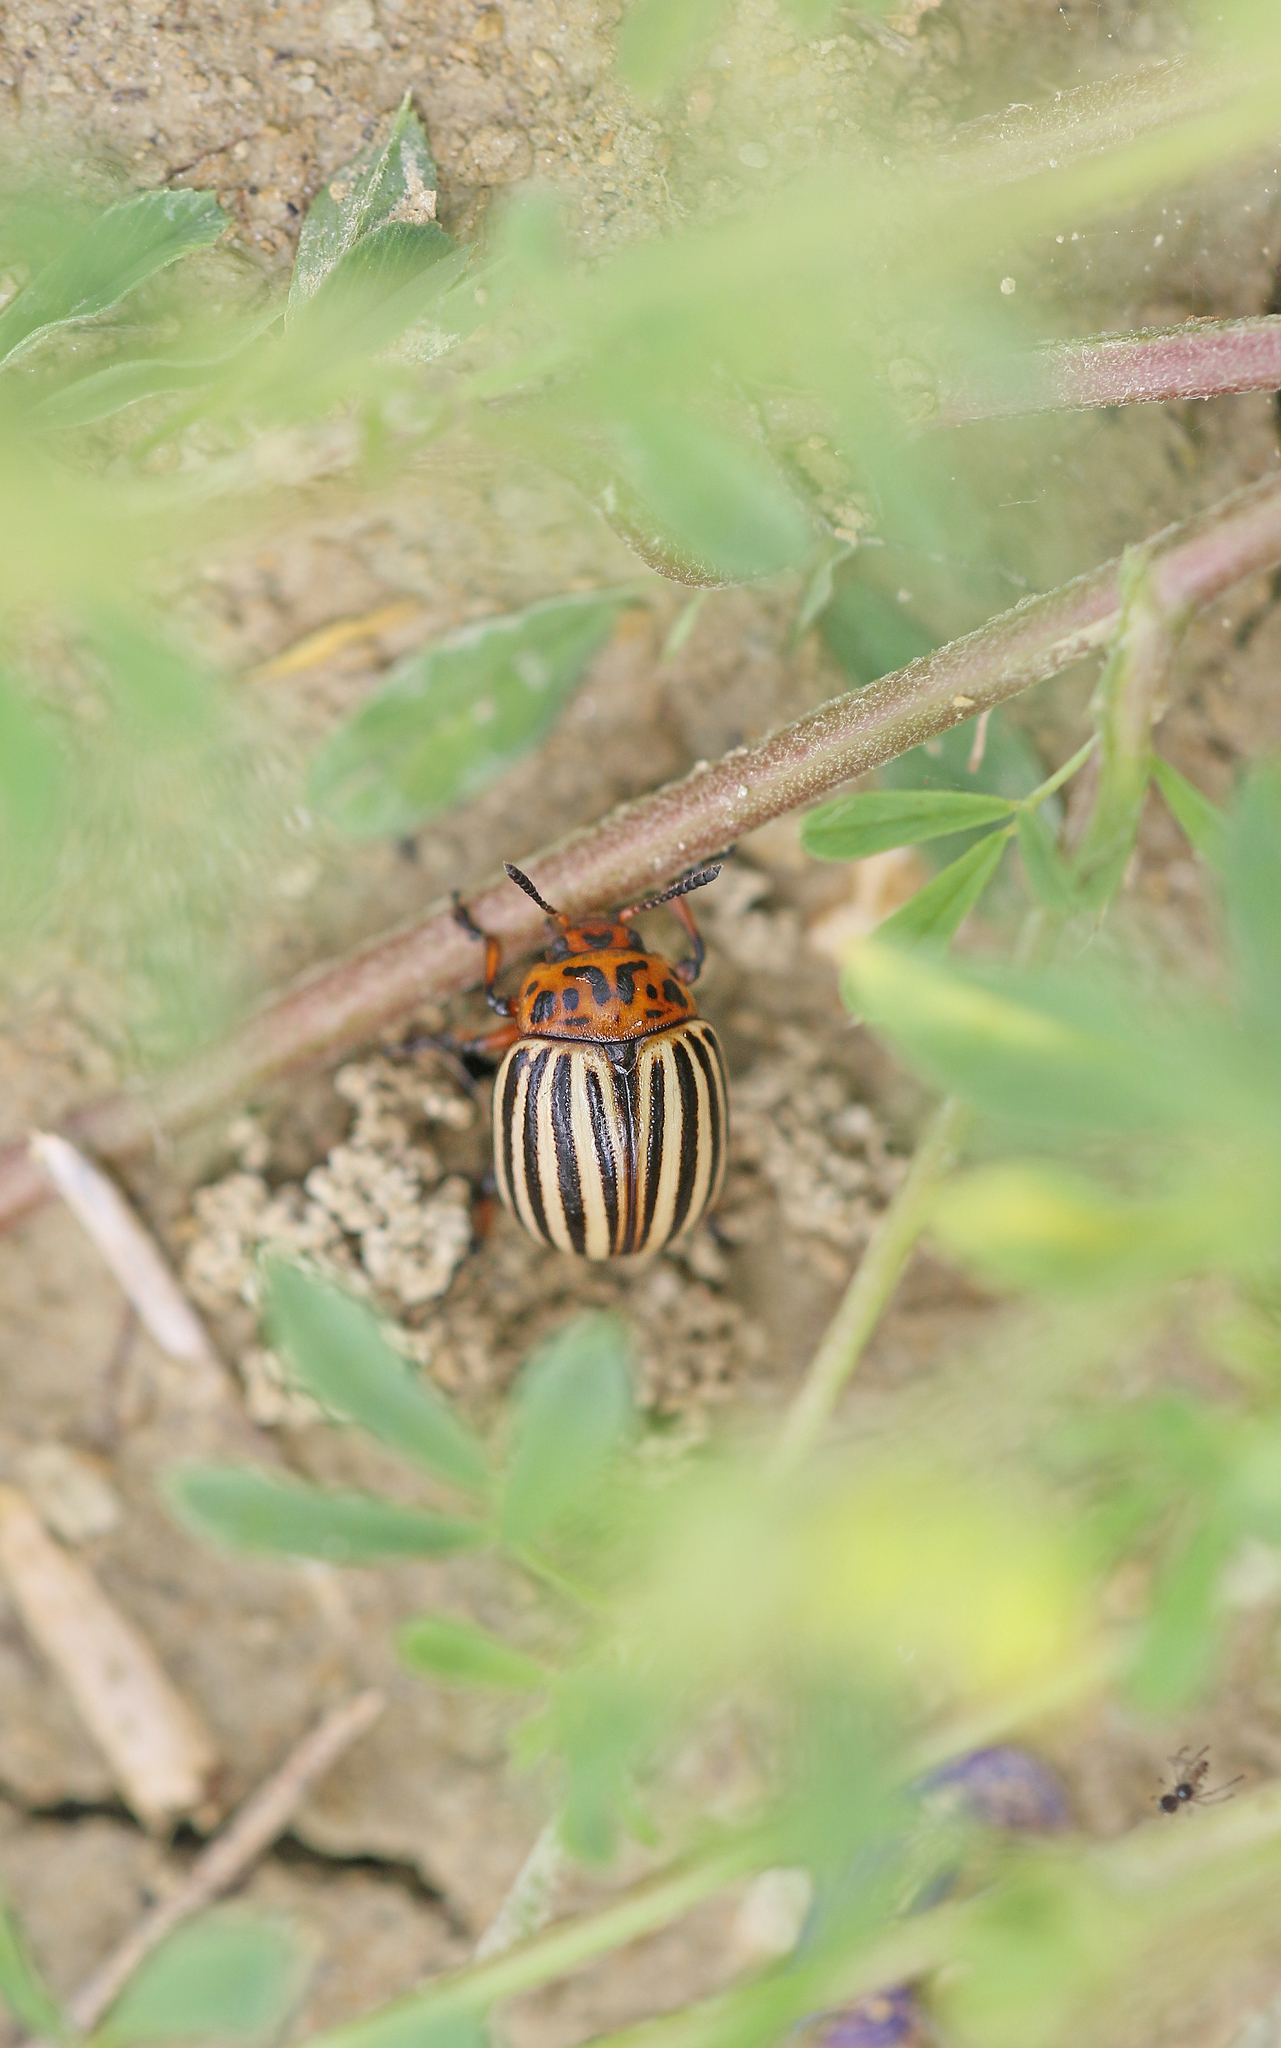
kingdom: Animalia
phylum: Arthropoda
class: Insecta
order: Coleoptera
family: Chrysomelidae
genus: Leptinotarsa
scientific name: Leptinotarsa decemlineata
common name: Colorado potato beetle
